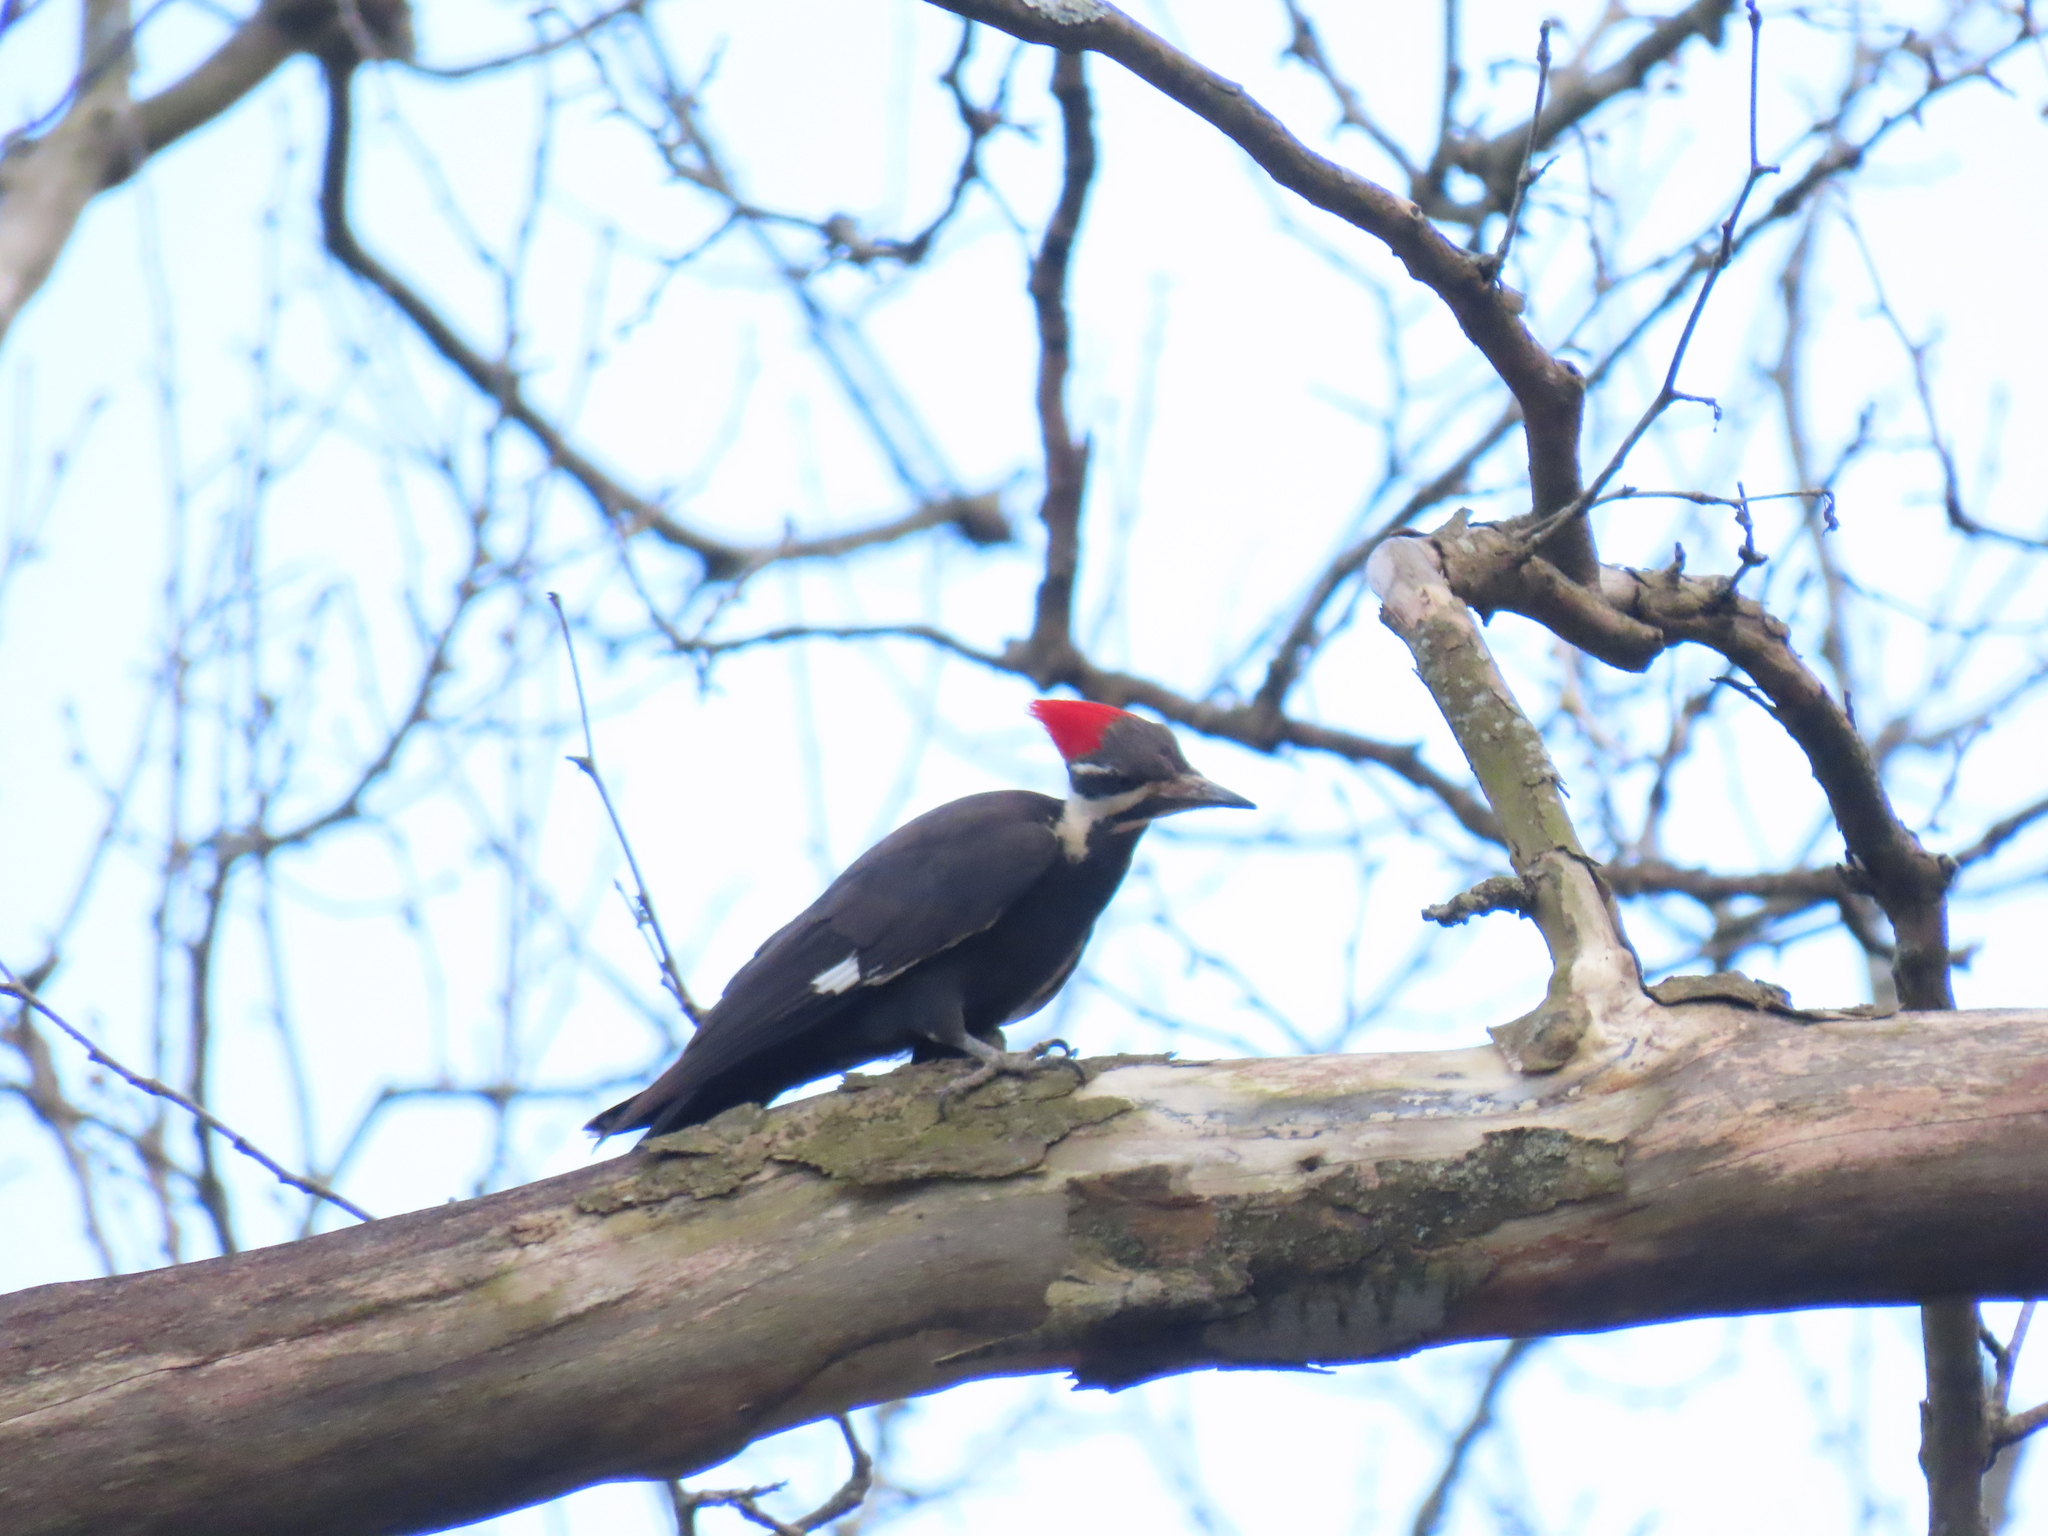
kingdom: Animalia
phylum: Chordata
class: Aves
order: Piciformes
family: Picidae
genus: Dryocopus
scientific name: Dryocopus pileatus
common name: Pileated woodpecker
